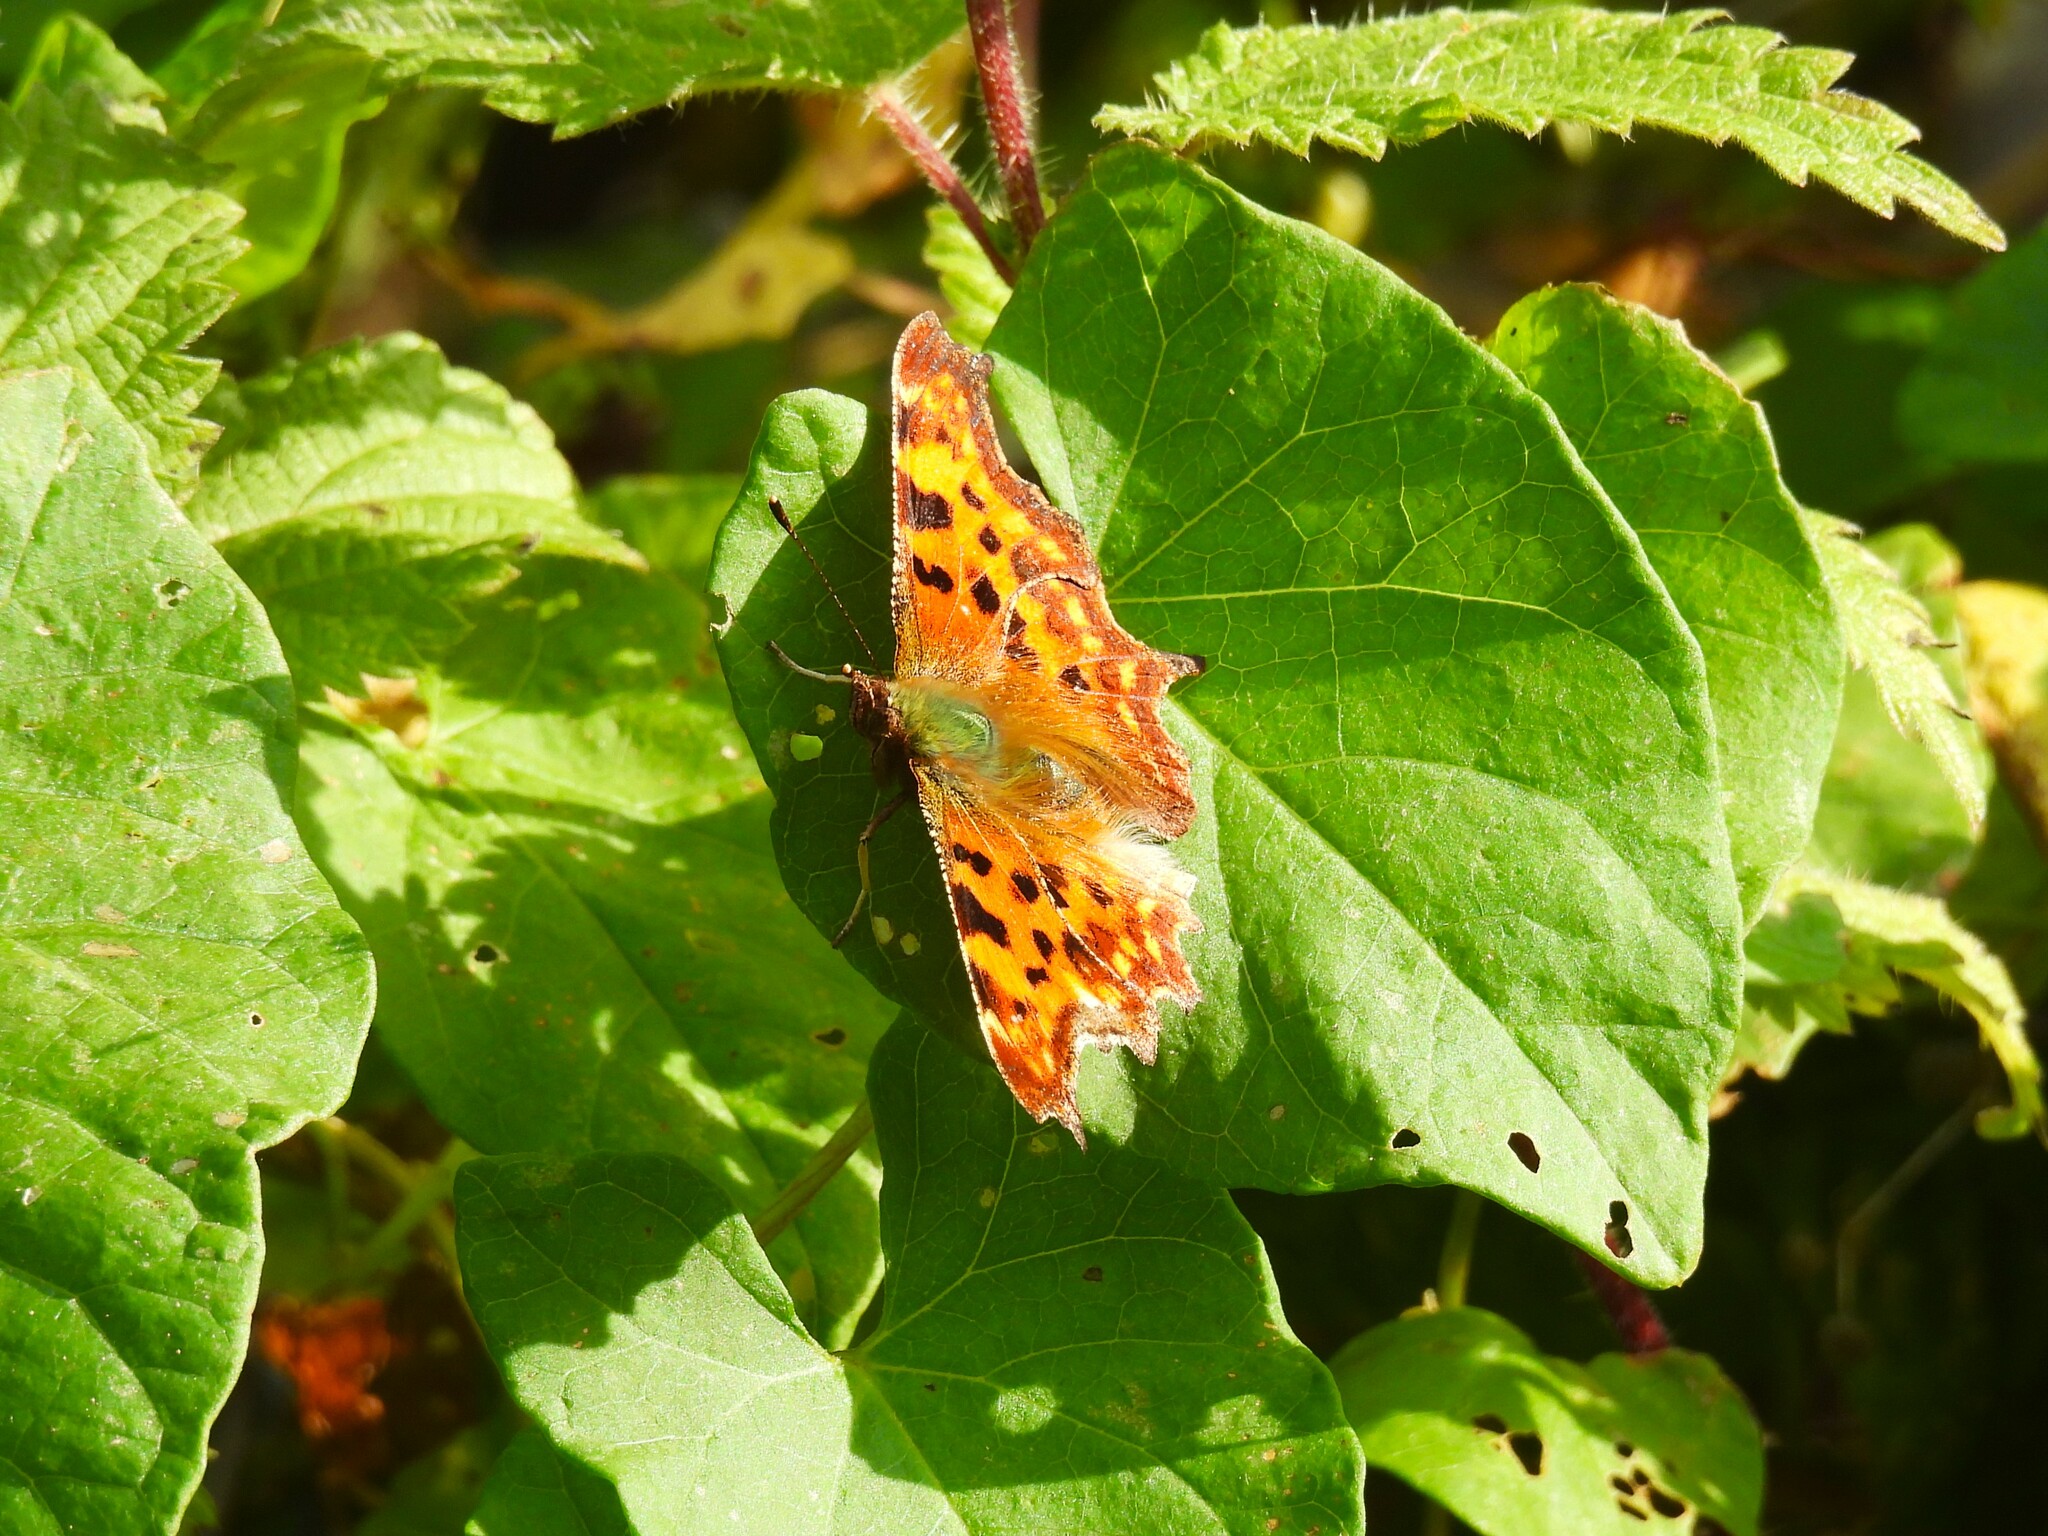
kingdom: Animalia
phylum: Arthropoda
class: Insecta
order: Lepidoptera
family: Nymphalidae
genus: Polygonia
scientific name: Polygonia c-album
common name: Comma
